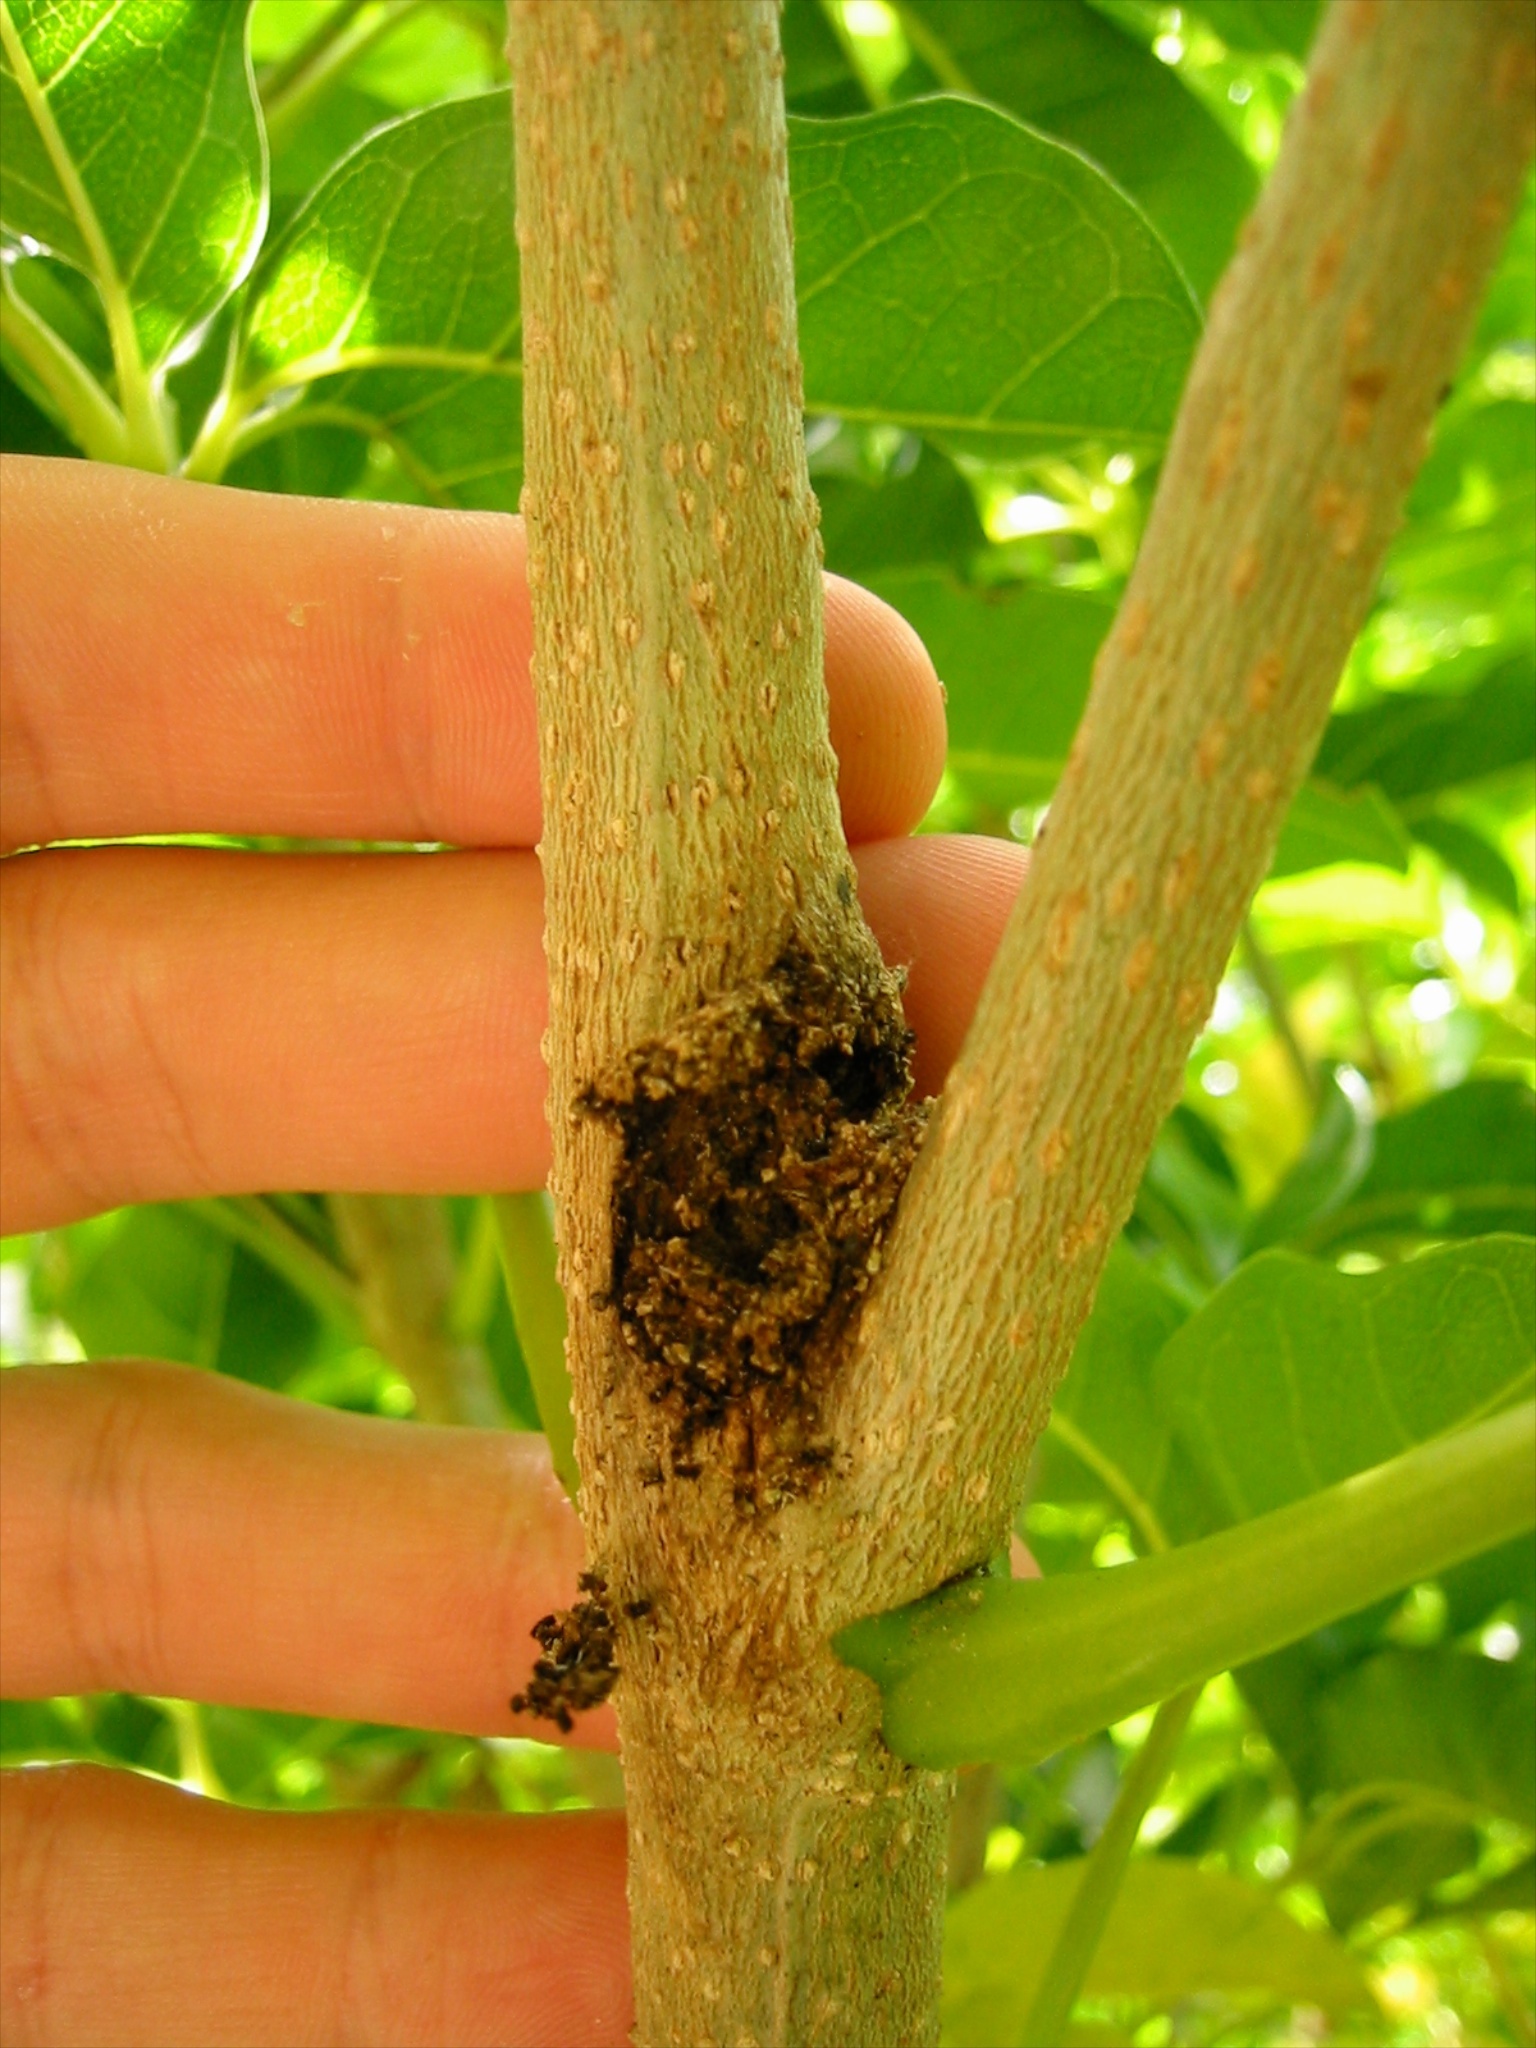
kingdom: Animalia
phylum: Arthropoda
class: Insecta
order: Lepidoptera
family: Hepialidae
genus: Aenetus
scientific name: Aenetus virescens
